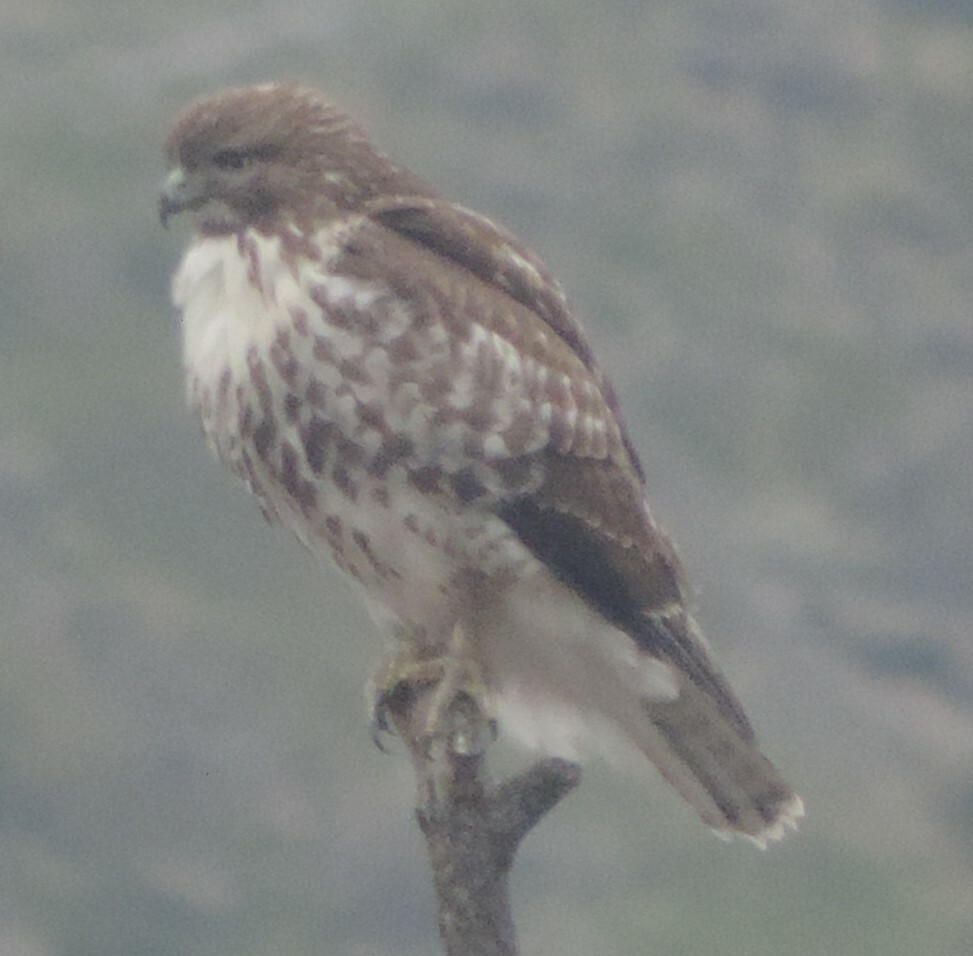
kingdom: Animalia
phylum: Chordata
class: Aves
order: Accipitriformes
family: Accipitridae
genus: Buteo
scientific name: Buteo jamaicensis
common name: Red-tailed hawk
